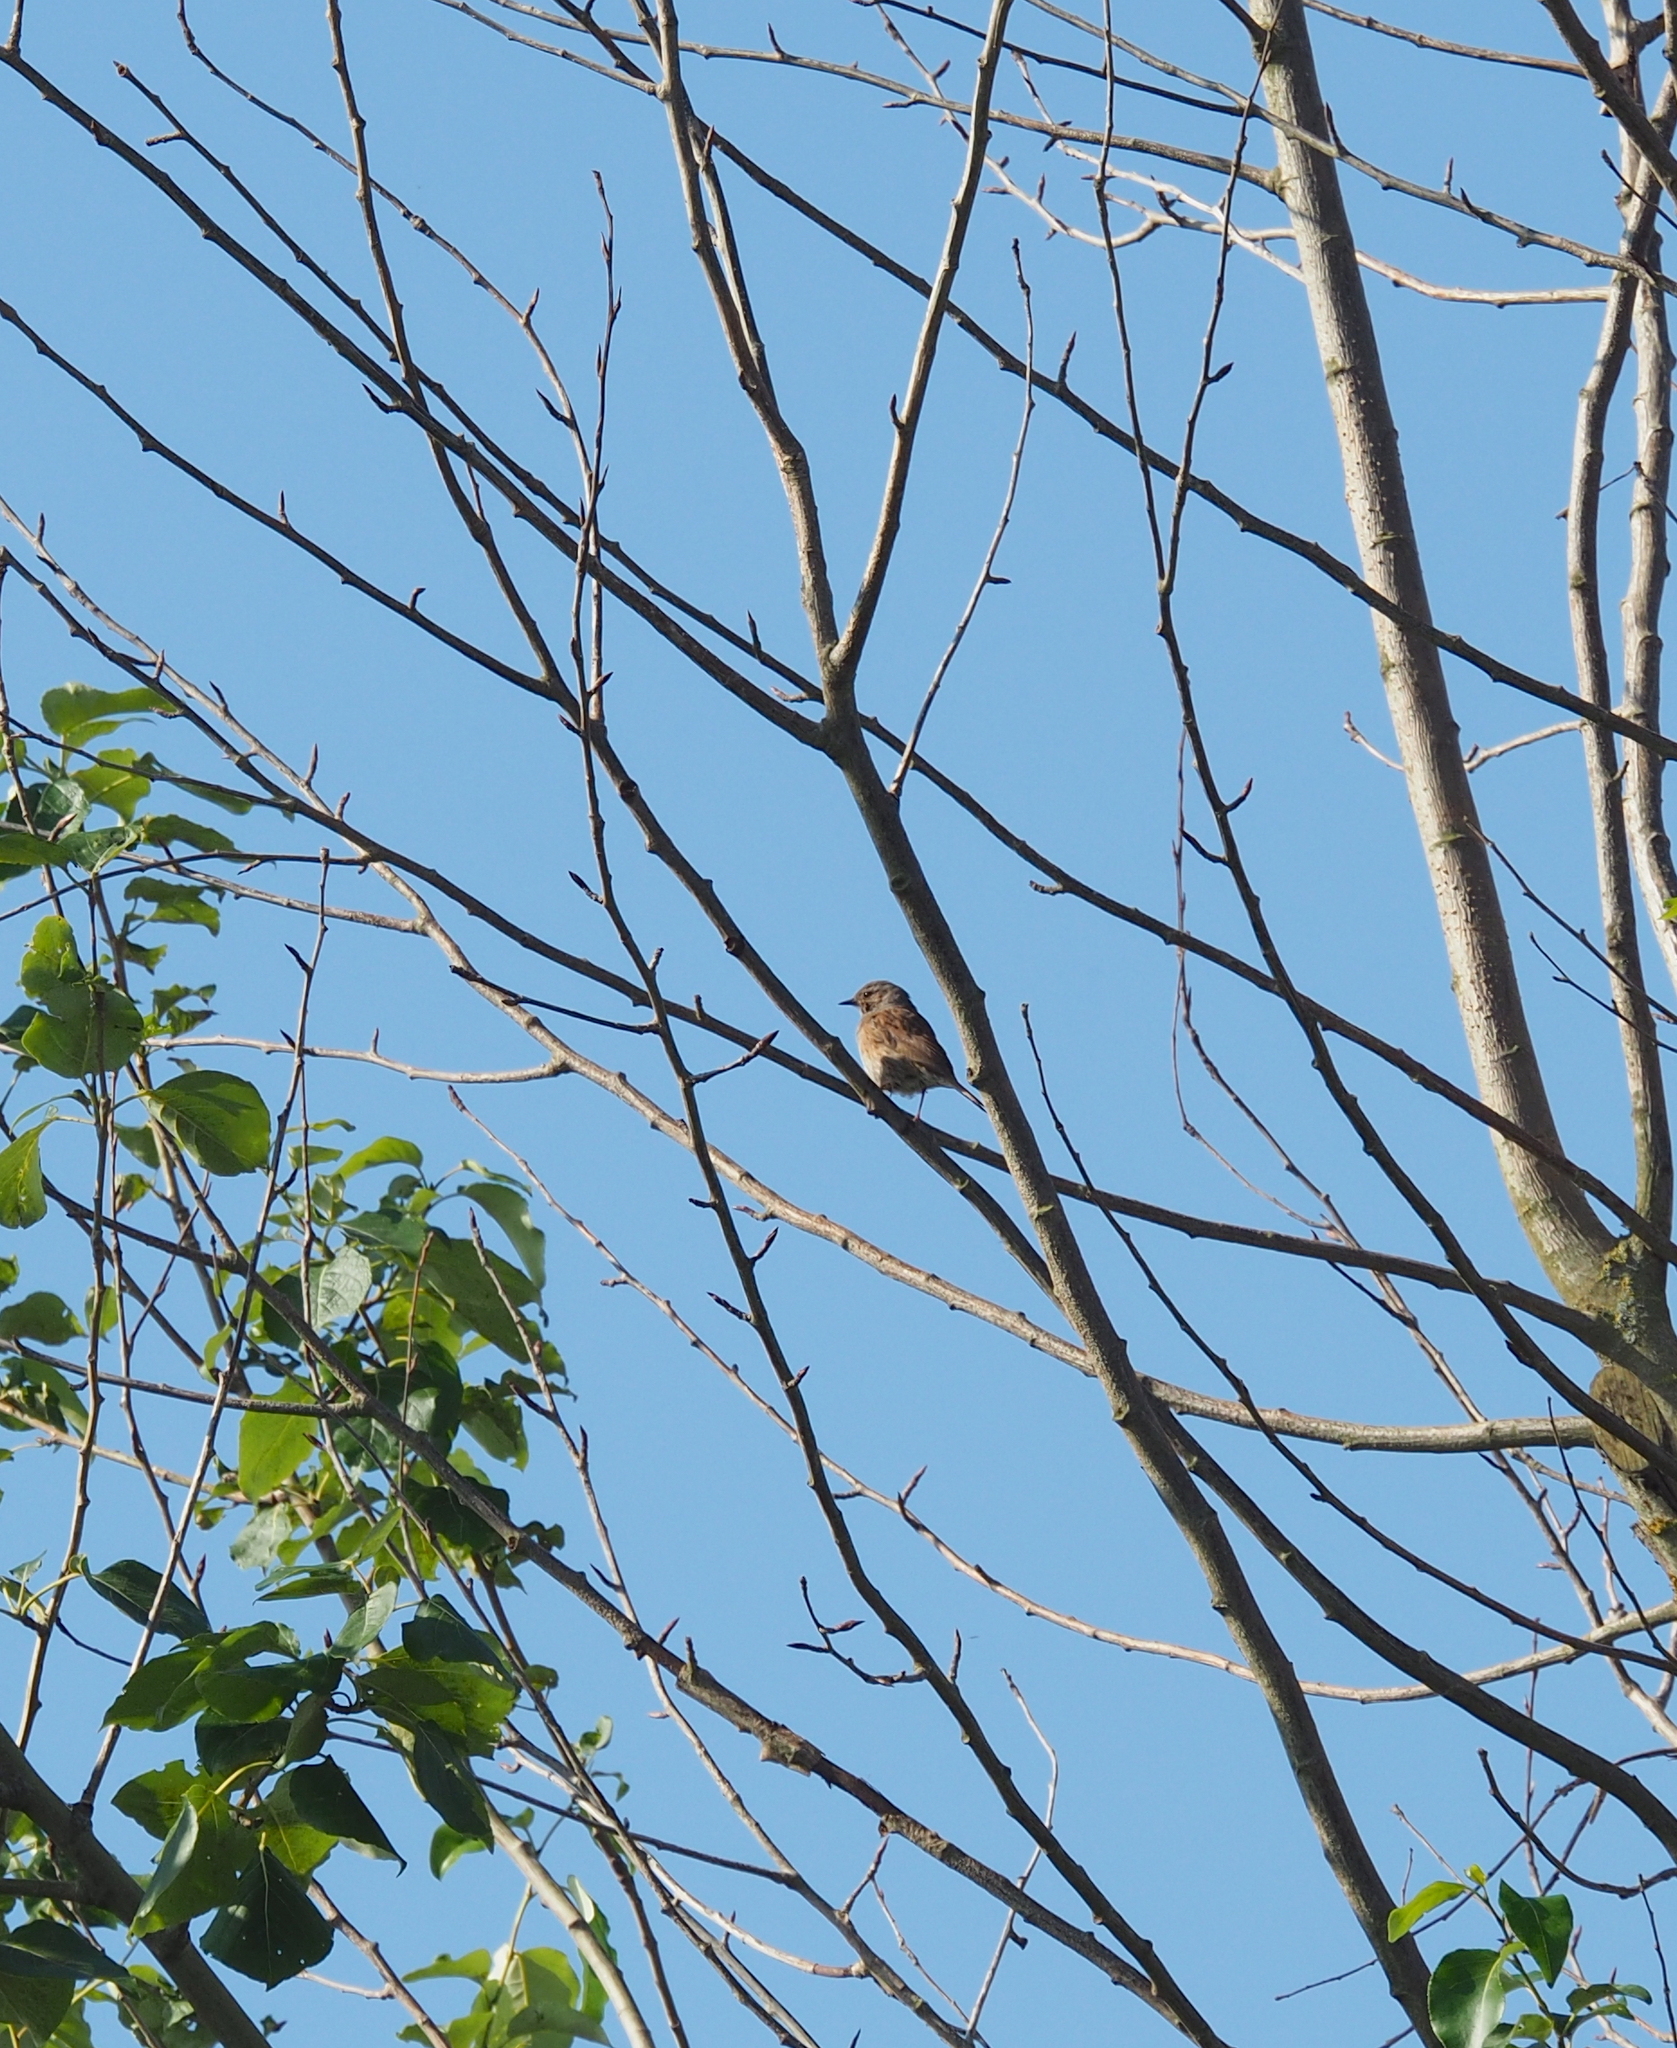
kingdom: Animalia
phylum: Chordata
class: Aves
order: Passeriformes
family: Prunellidae
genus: Prunella
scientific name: Prunella modularis
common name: Dunnock
